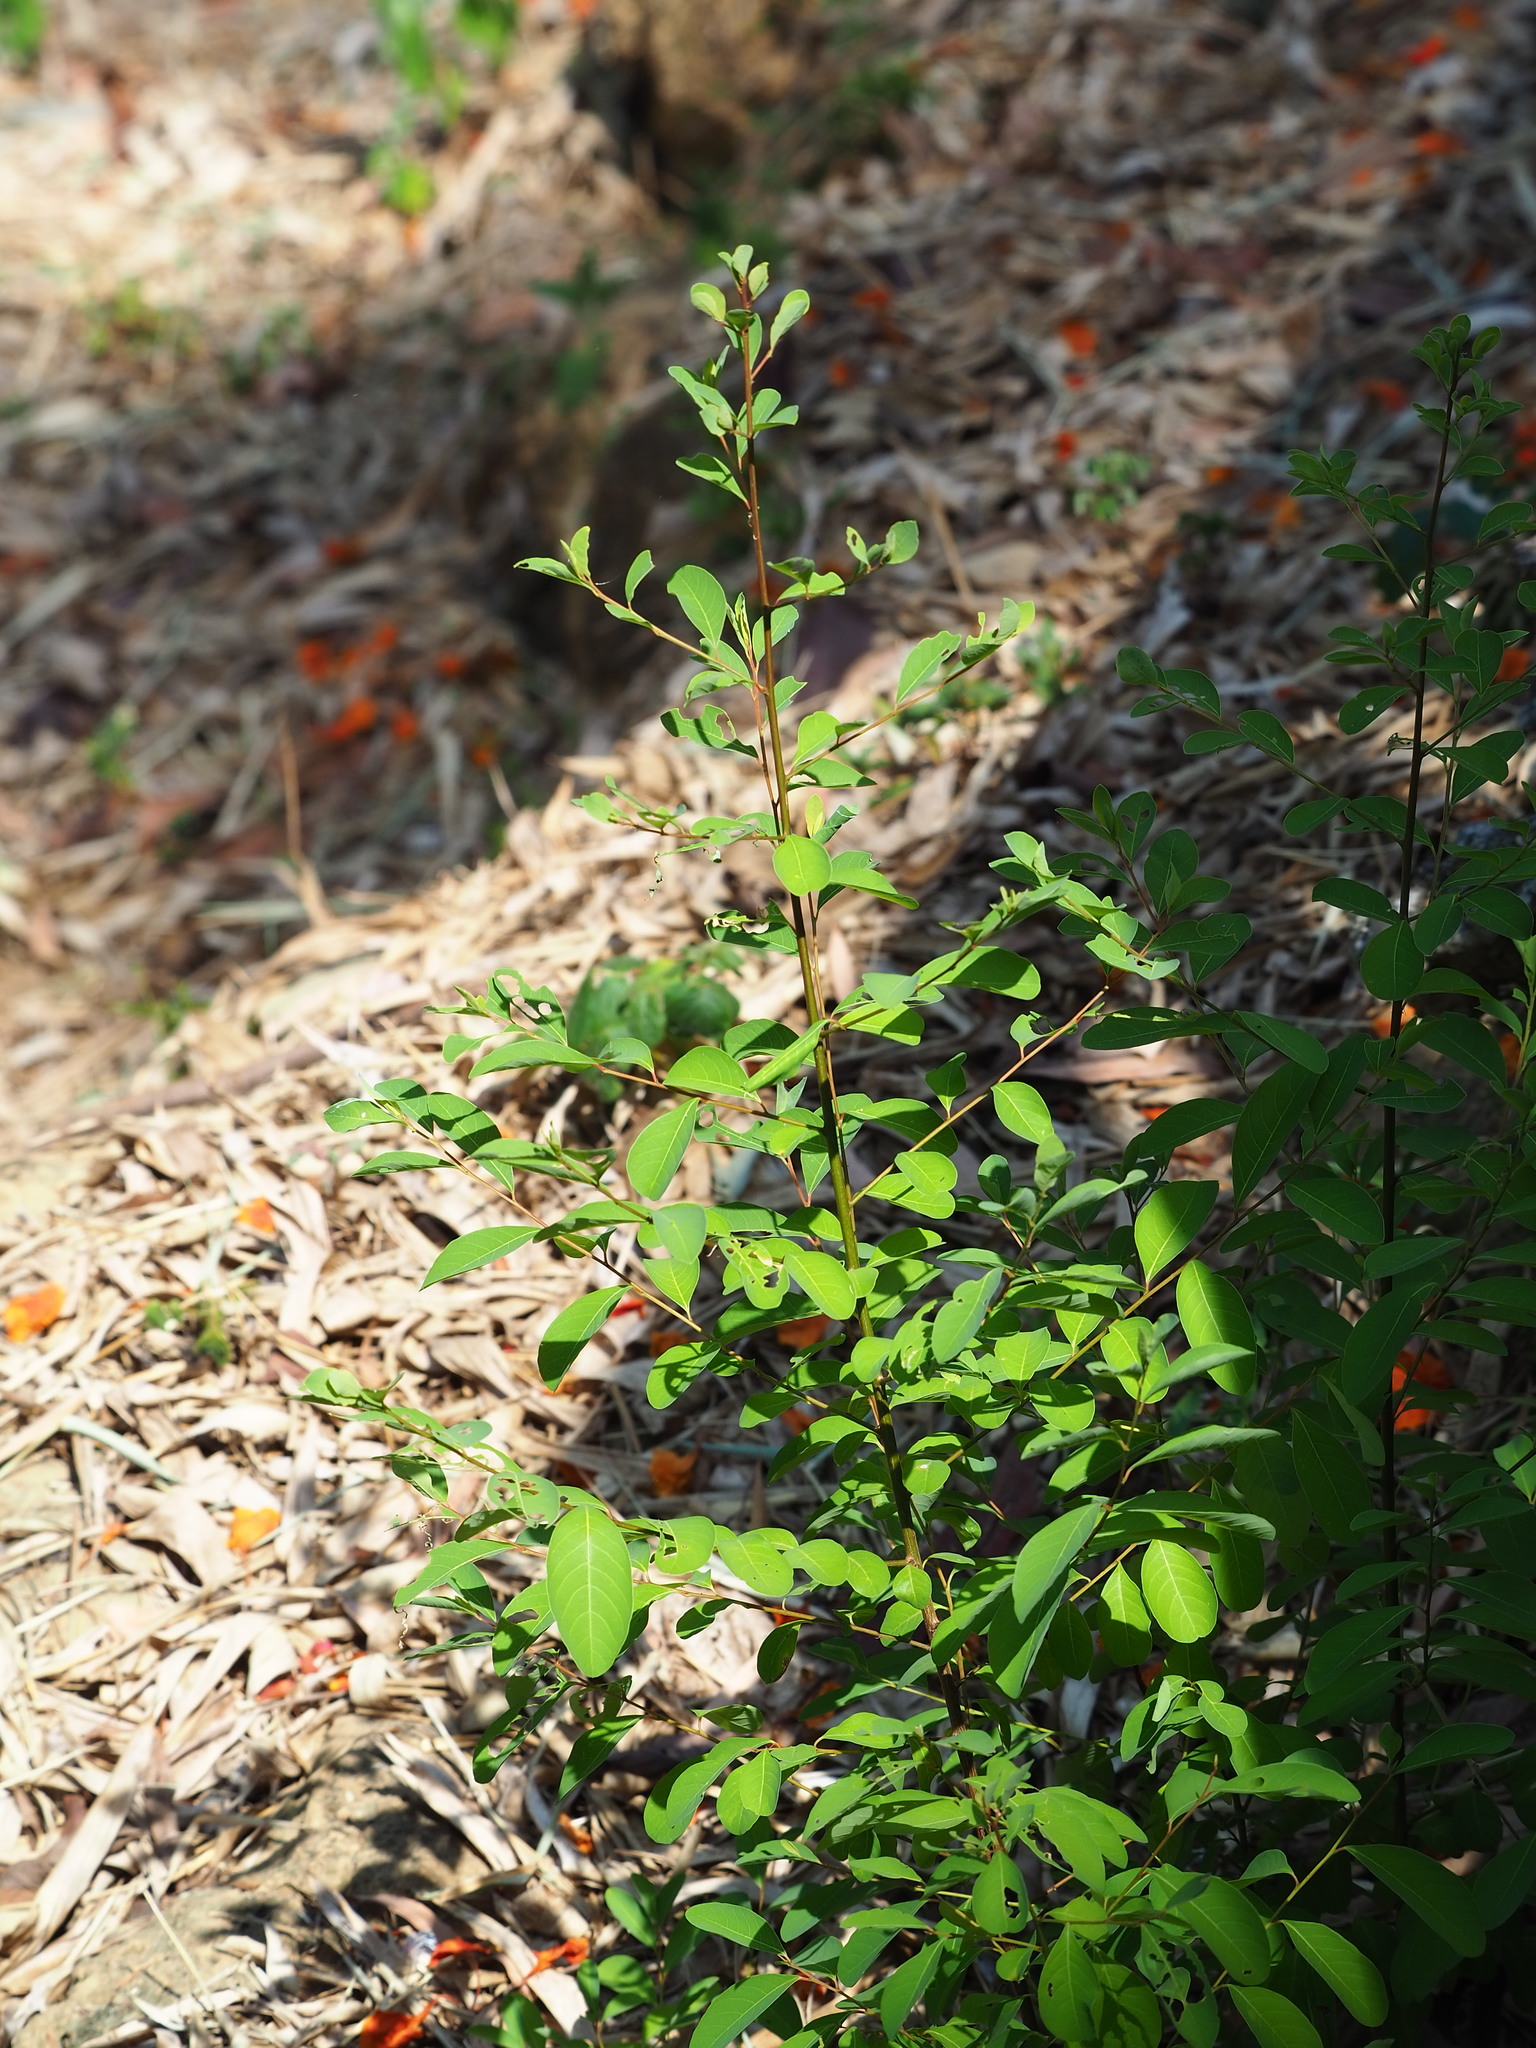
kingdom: Plantae
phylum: Tracheophyta
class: Magnoliopsida
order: Malpighiales
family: Phyllanthaceae
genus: Flueggea
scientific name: Flueggea virosa
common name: Common bushweed
